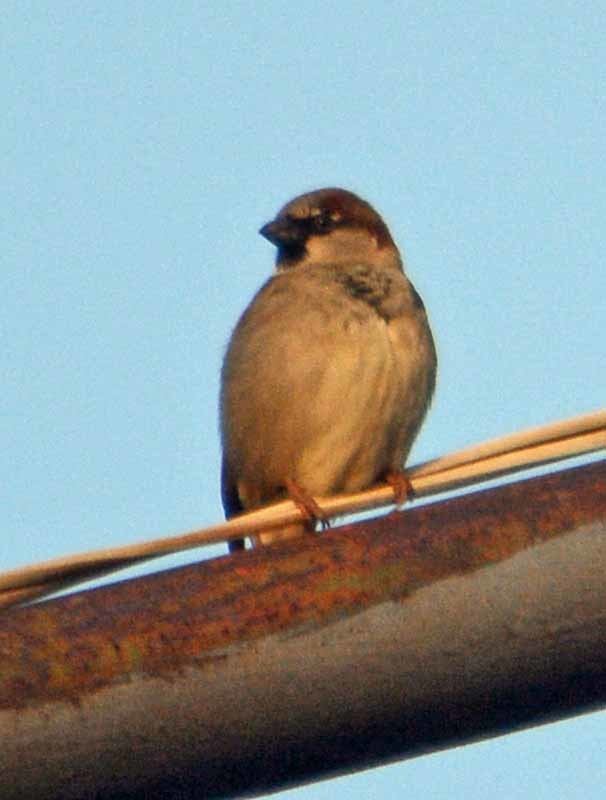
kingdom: Animalia
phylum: Chordata
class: Aves
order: Passeriformes
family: Passeridae
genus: Passer
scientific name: Passer domesticus
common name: House sparrow
